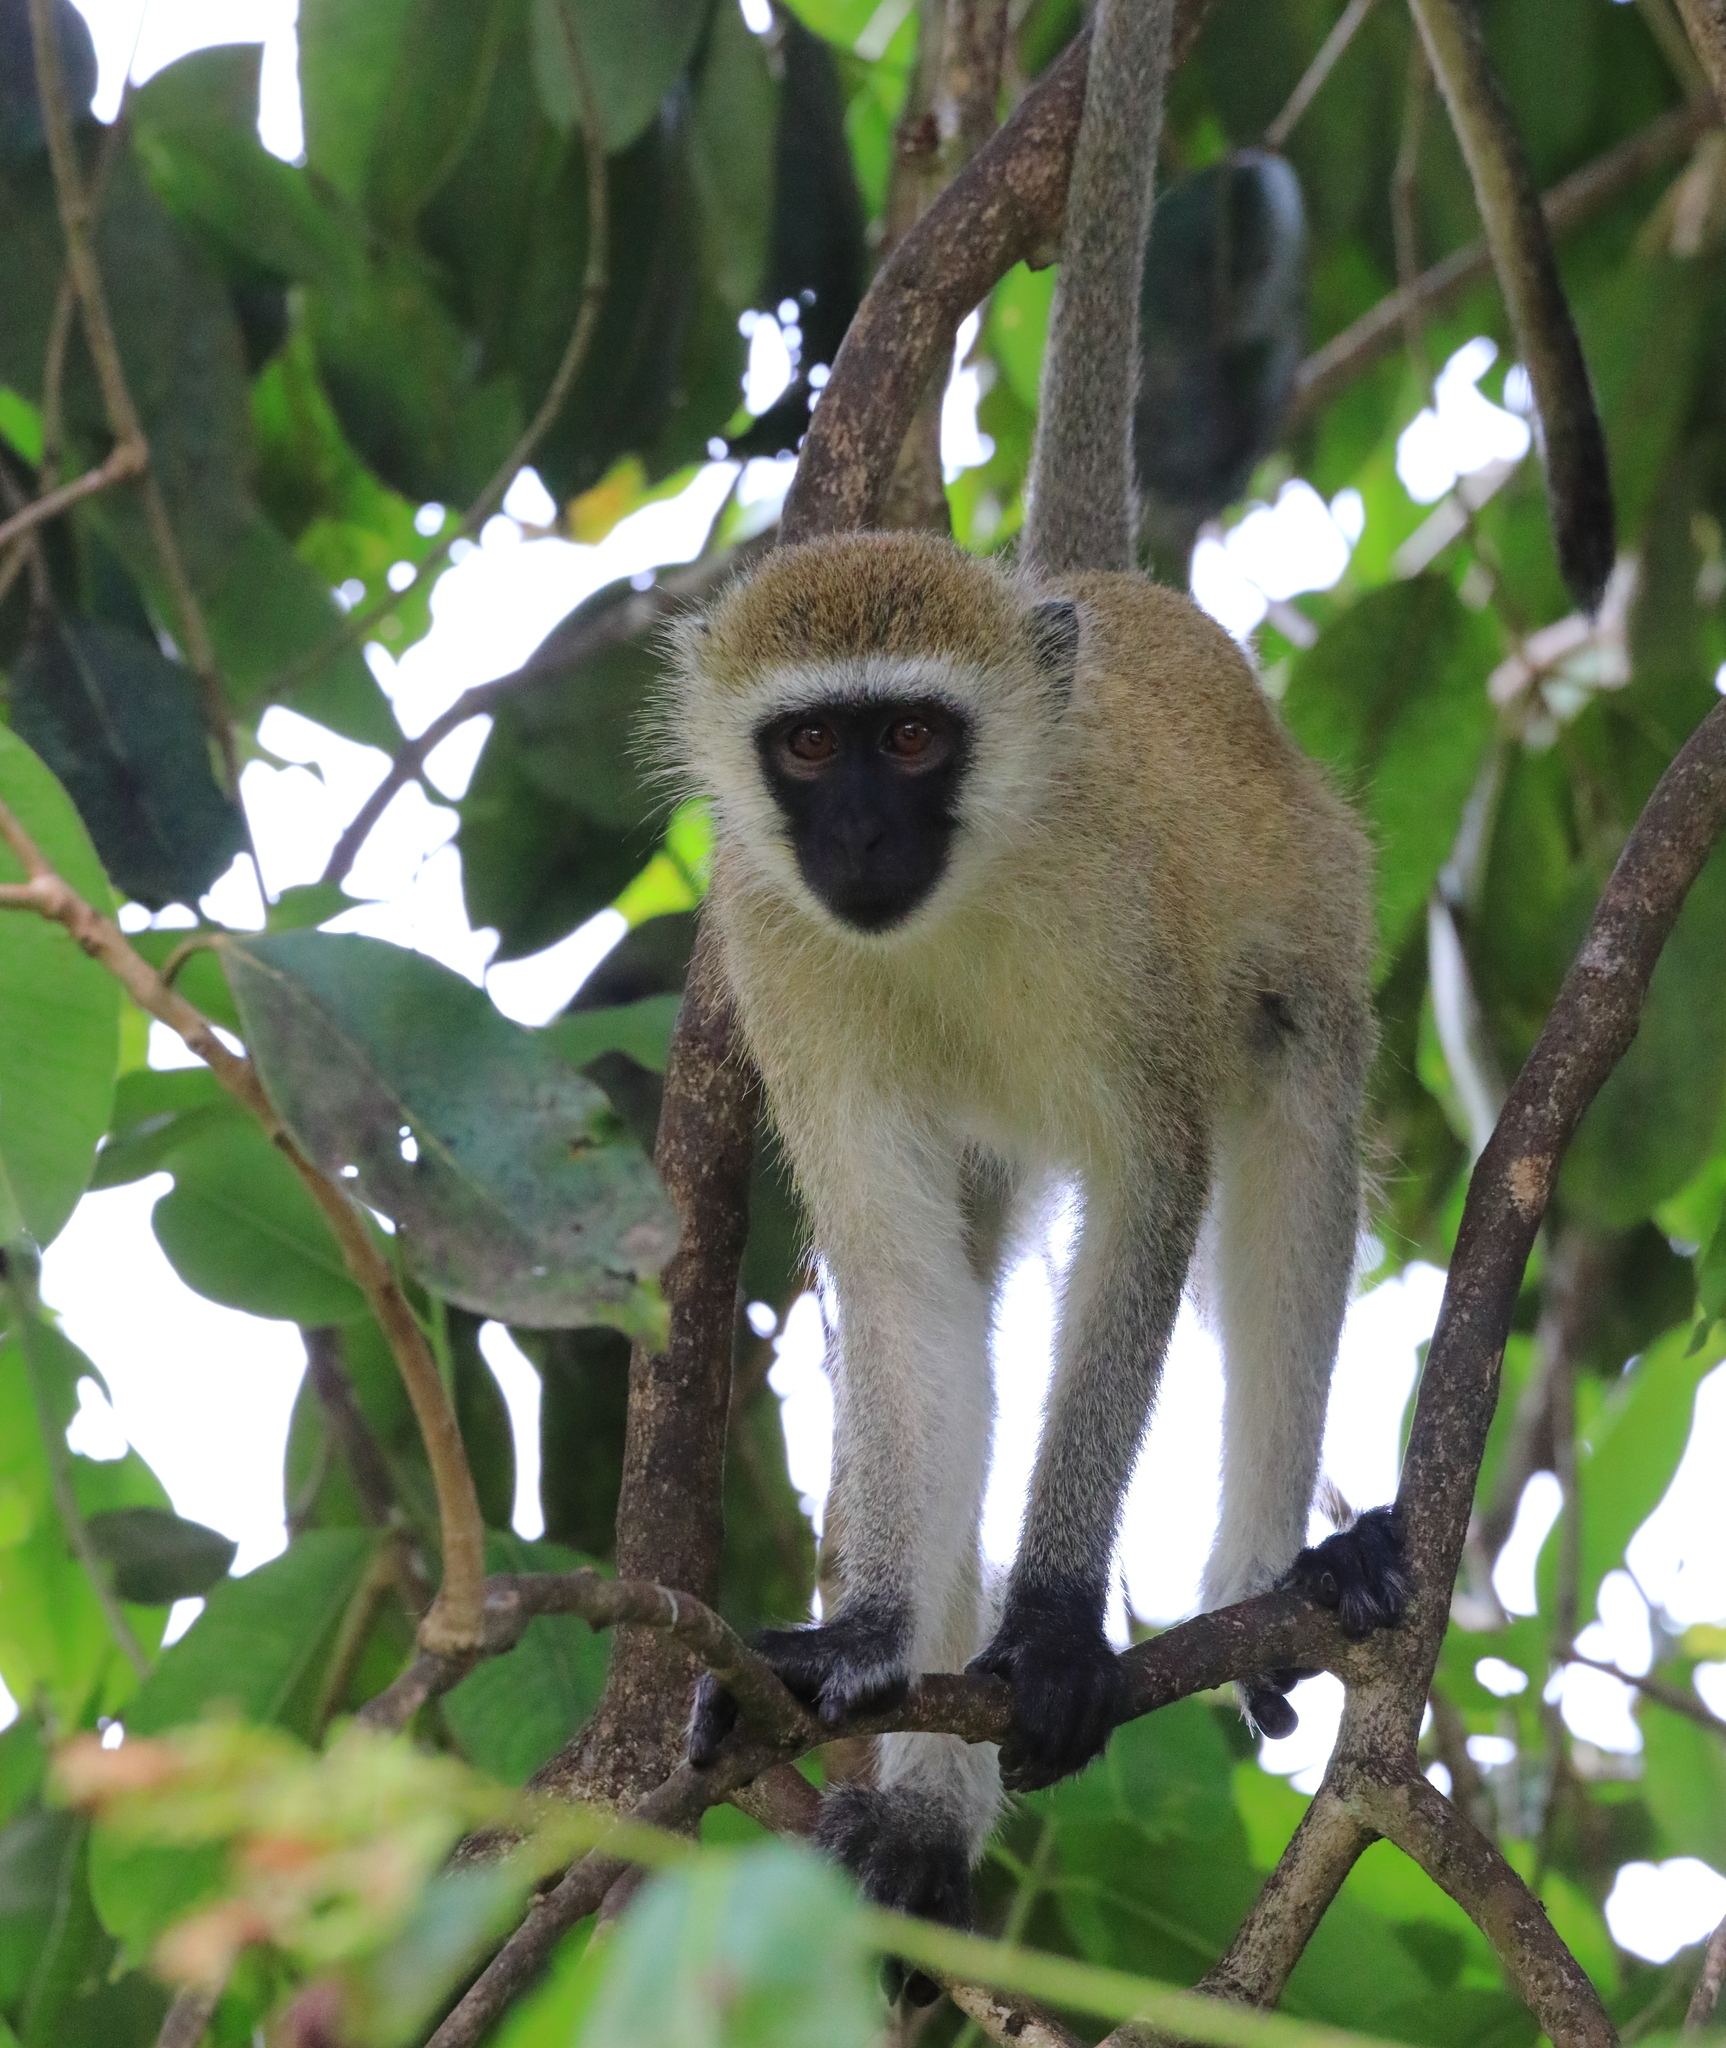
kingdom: Animalia
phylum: Chordata
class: Mammalia
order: Primates
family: Cercopithecidae
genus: Chlorocebus
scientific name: Chlorocebus pygerythrus
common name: Vervet monkey
